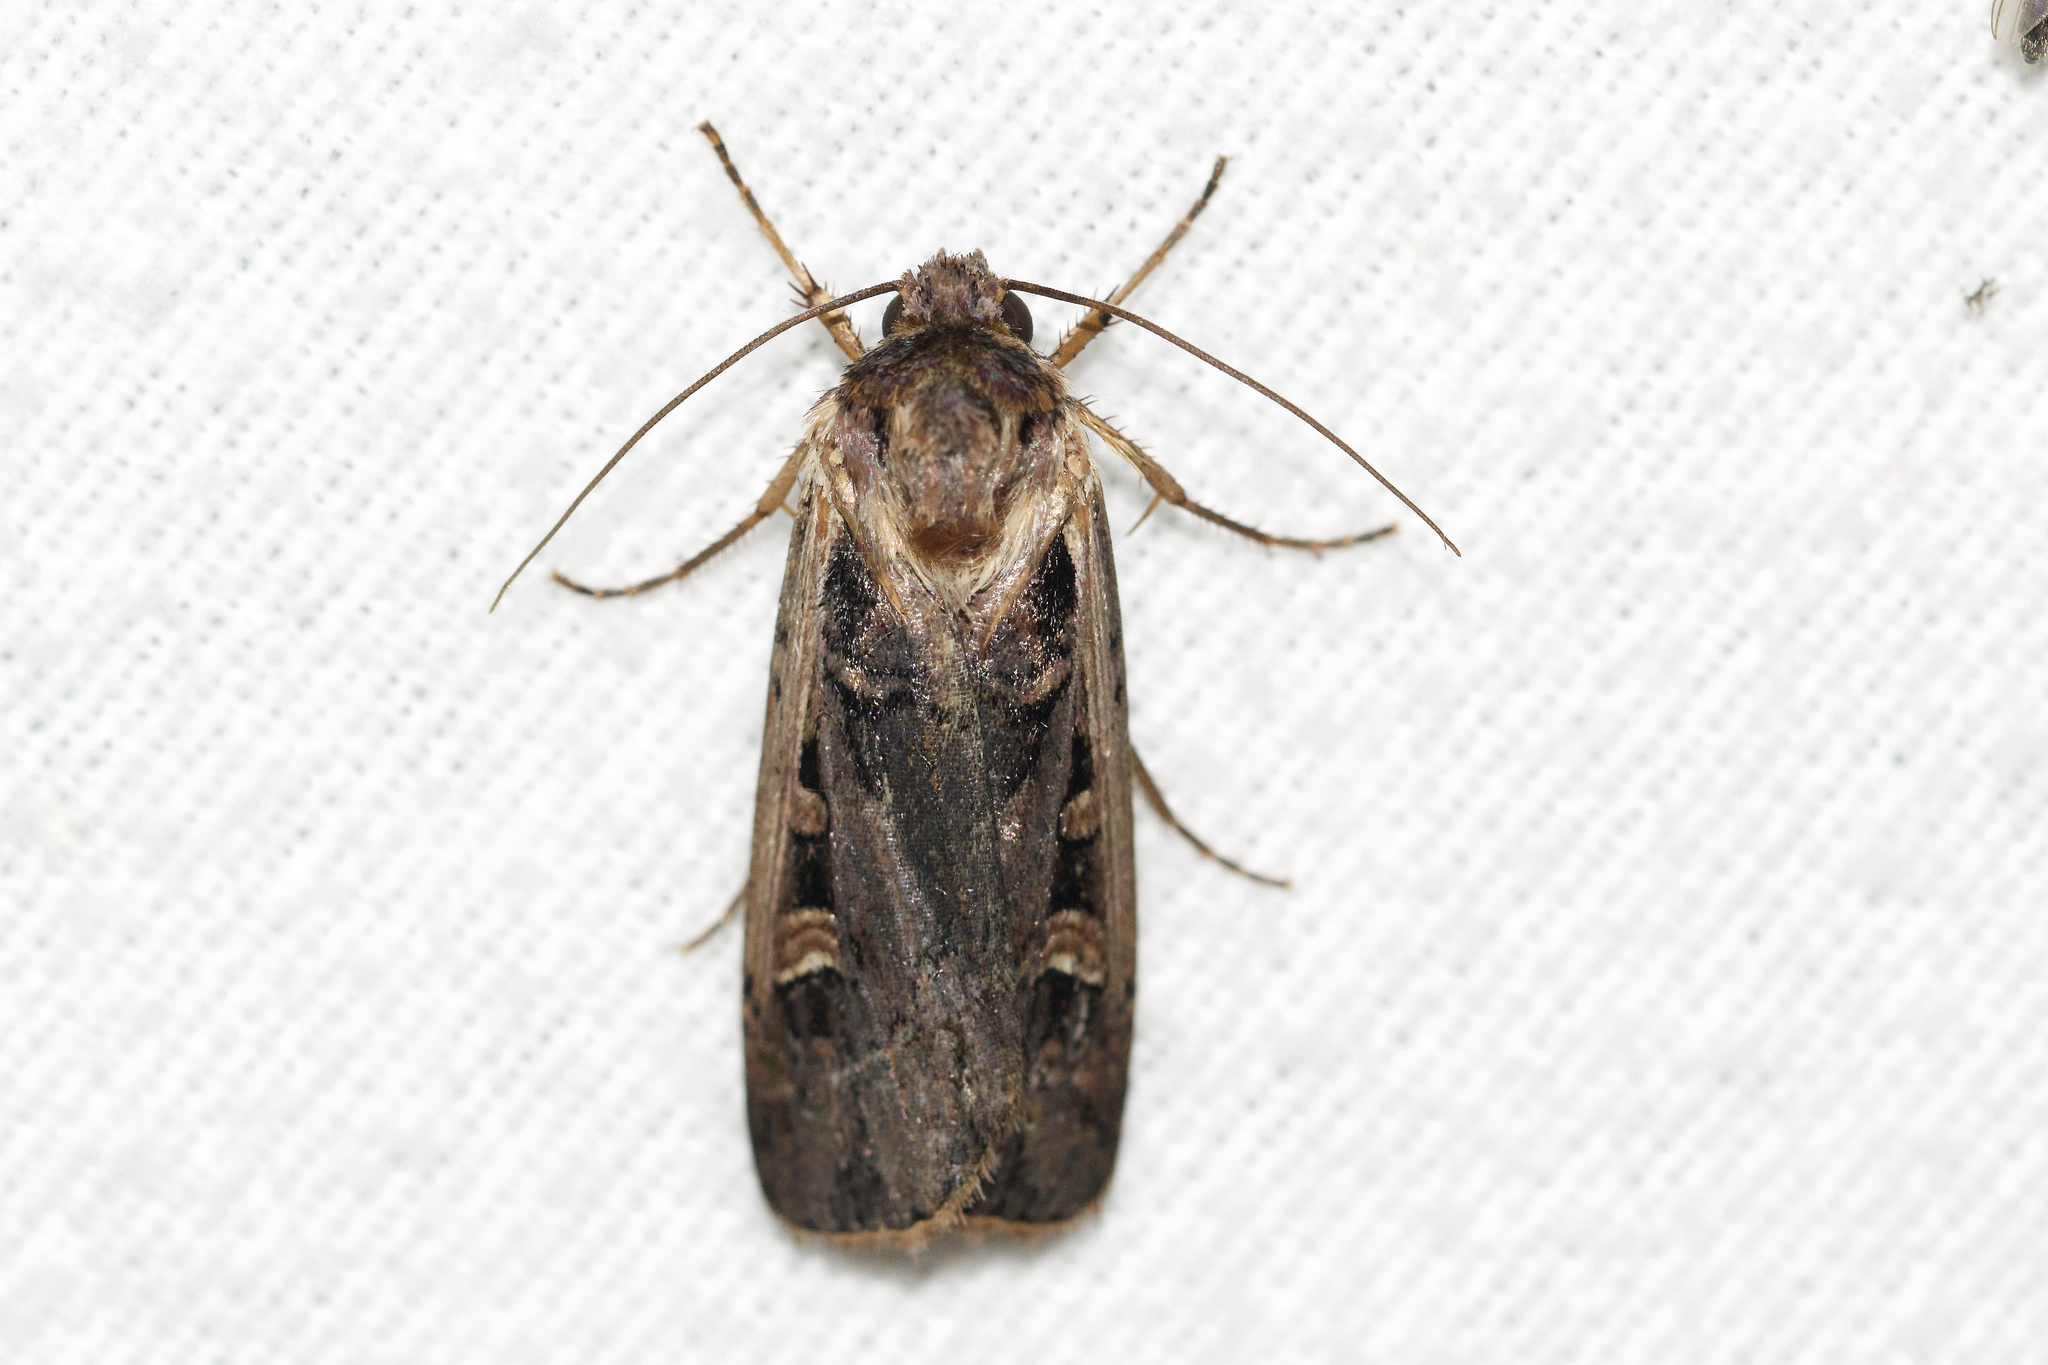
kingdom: Animalia
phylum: Arthropoda
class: Insecta
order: Lepidoptera
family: Noctuidae
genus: Striacosta
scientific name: Striacosta albicosta
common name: Western bean cutworm moth
